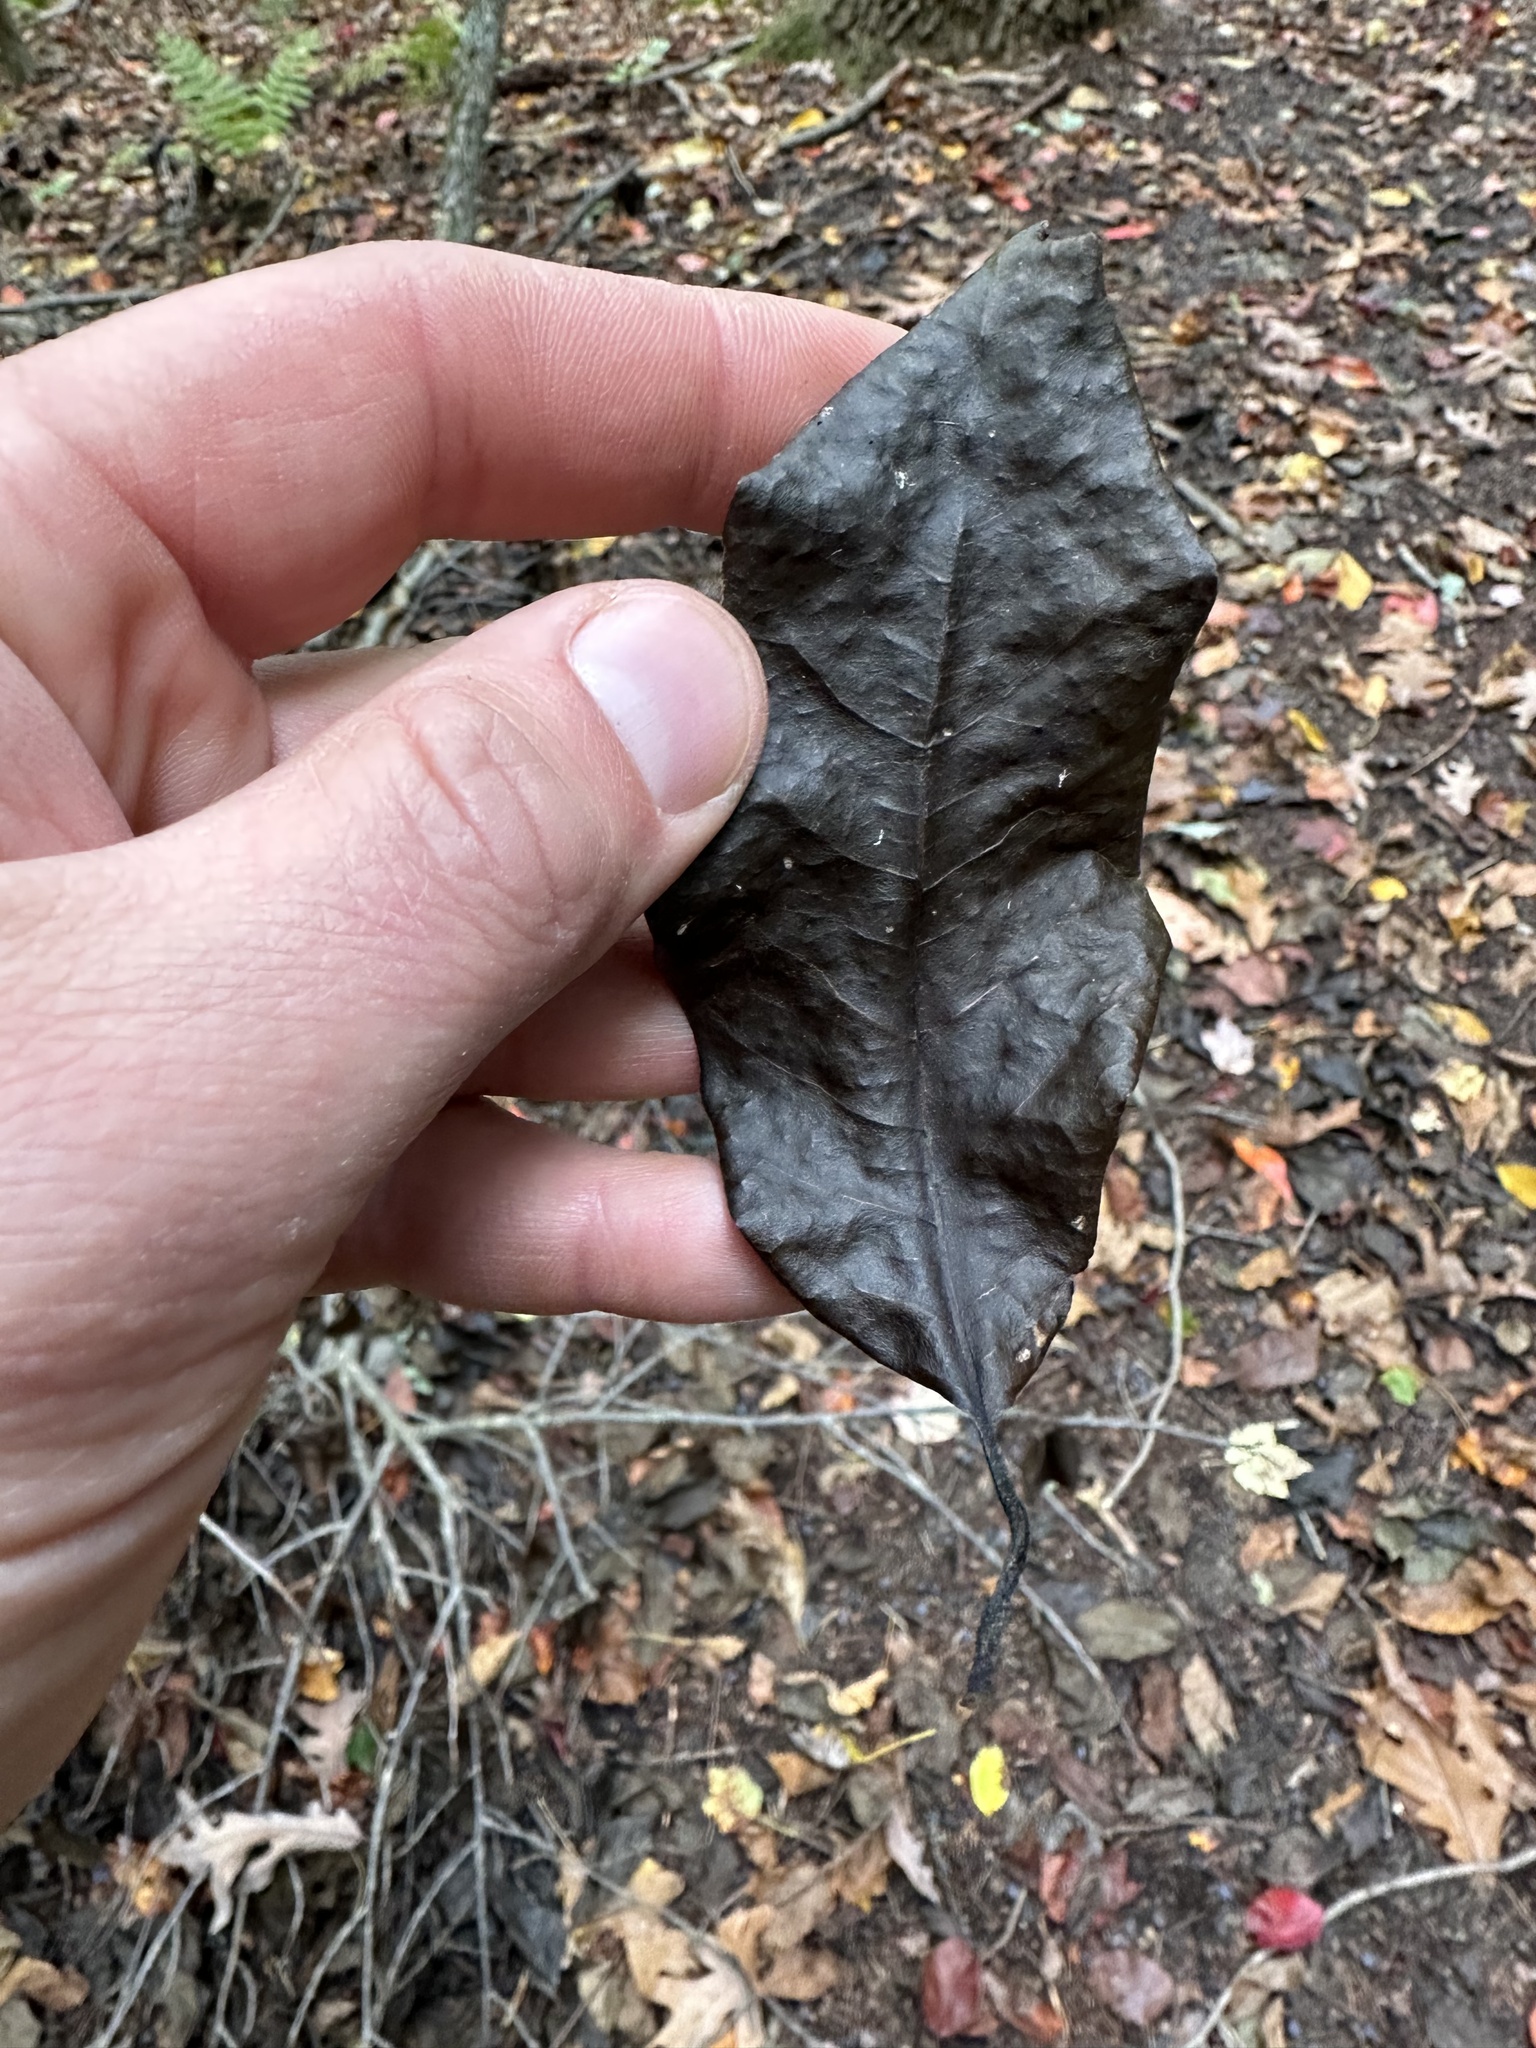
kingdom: Plantae
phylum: Tracheophyta
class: Magnoliopsida
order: Cornales
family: Nyssaceae
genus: Nyssa
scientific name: Nyssa sylvatica
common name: Black tupelo
